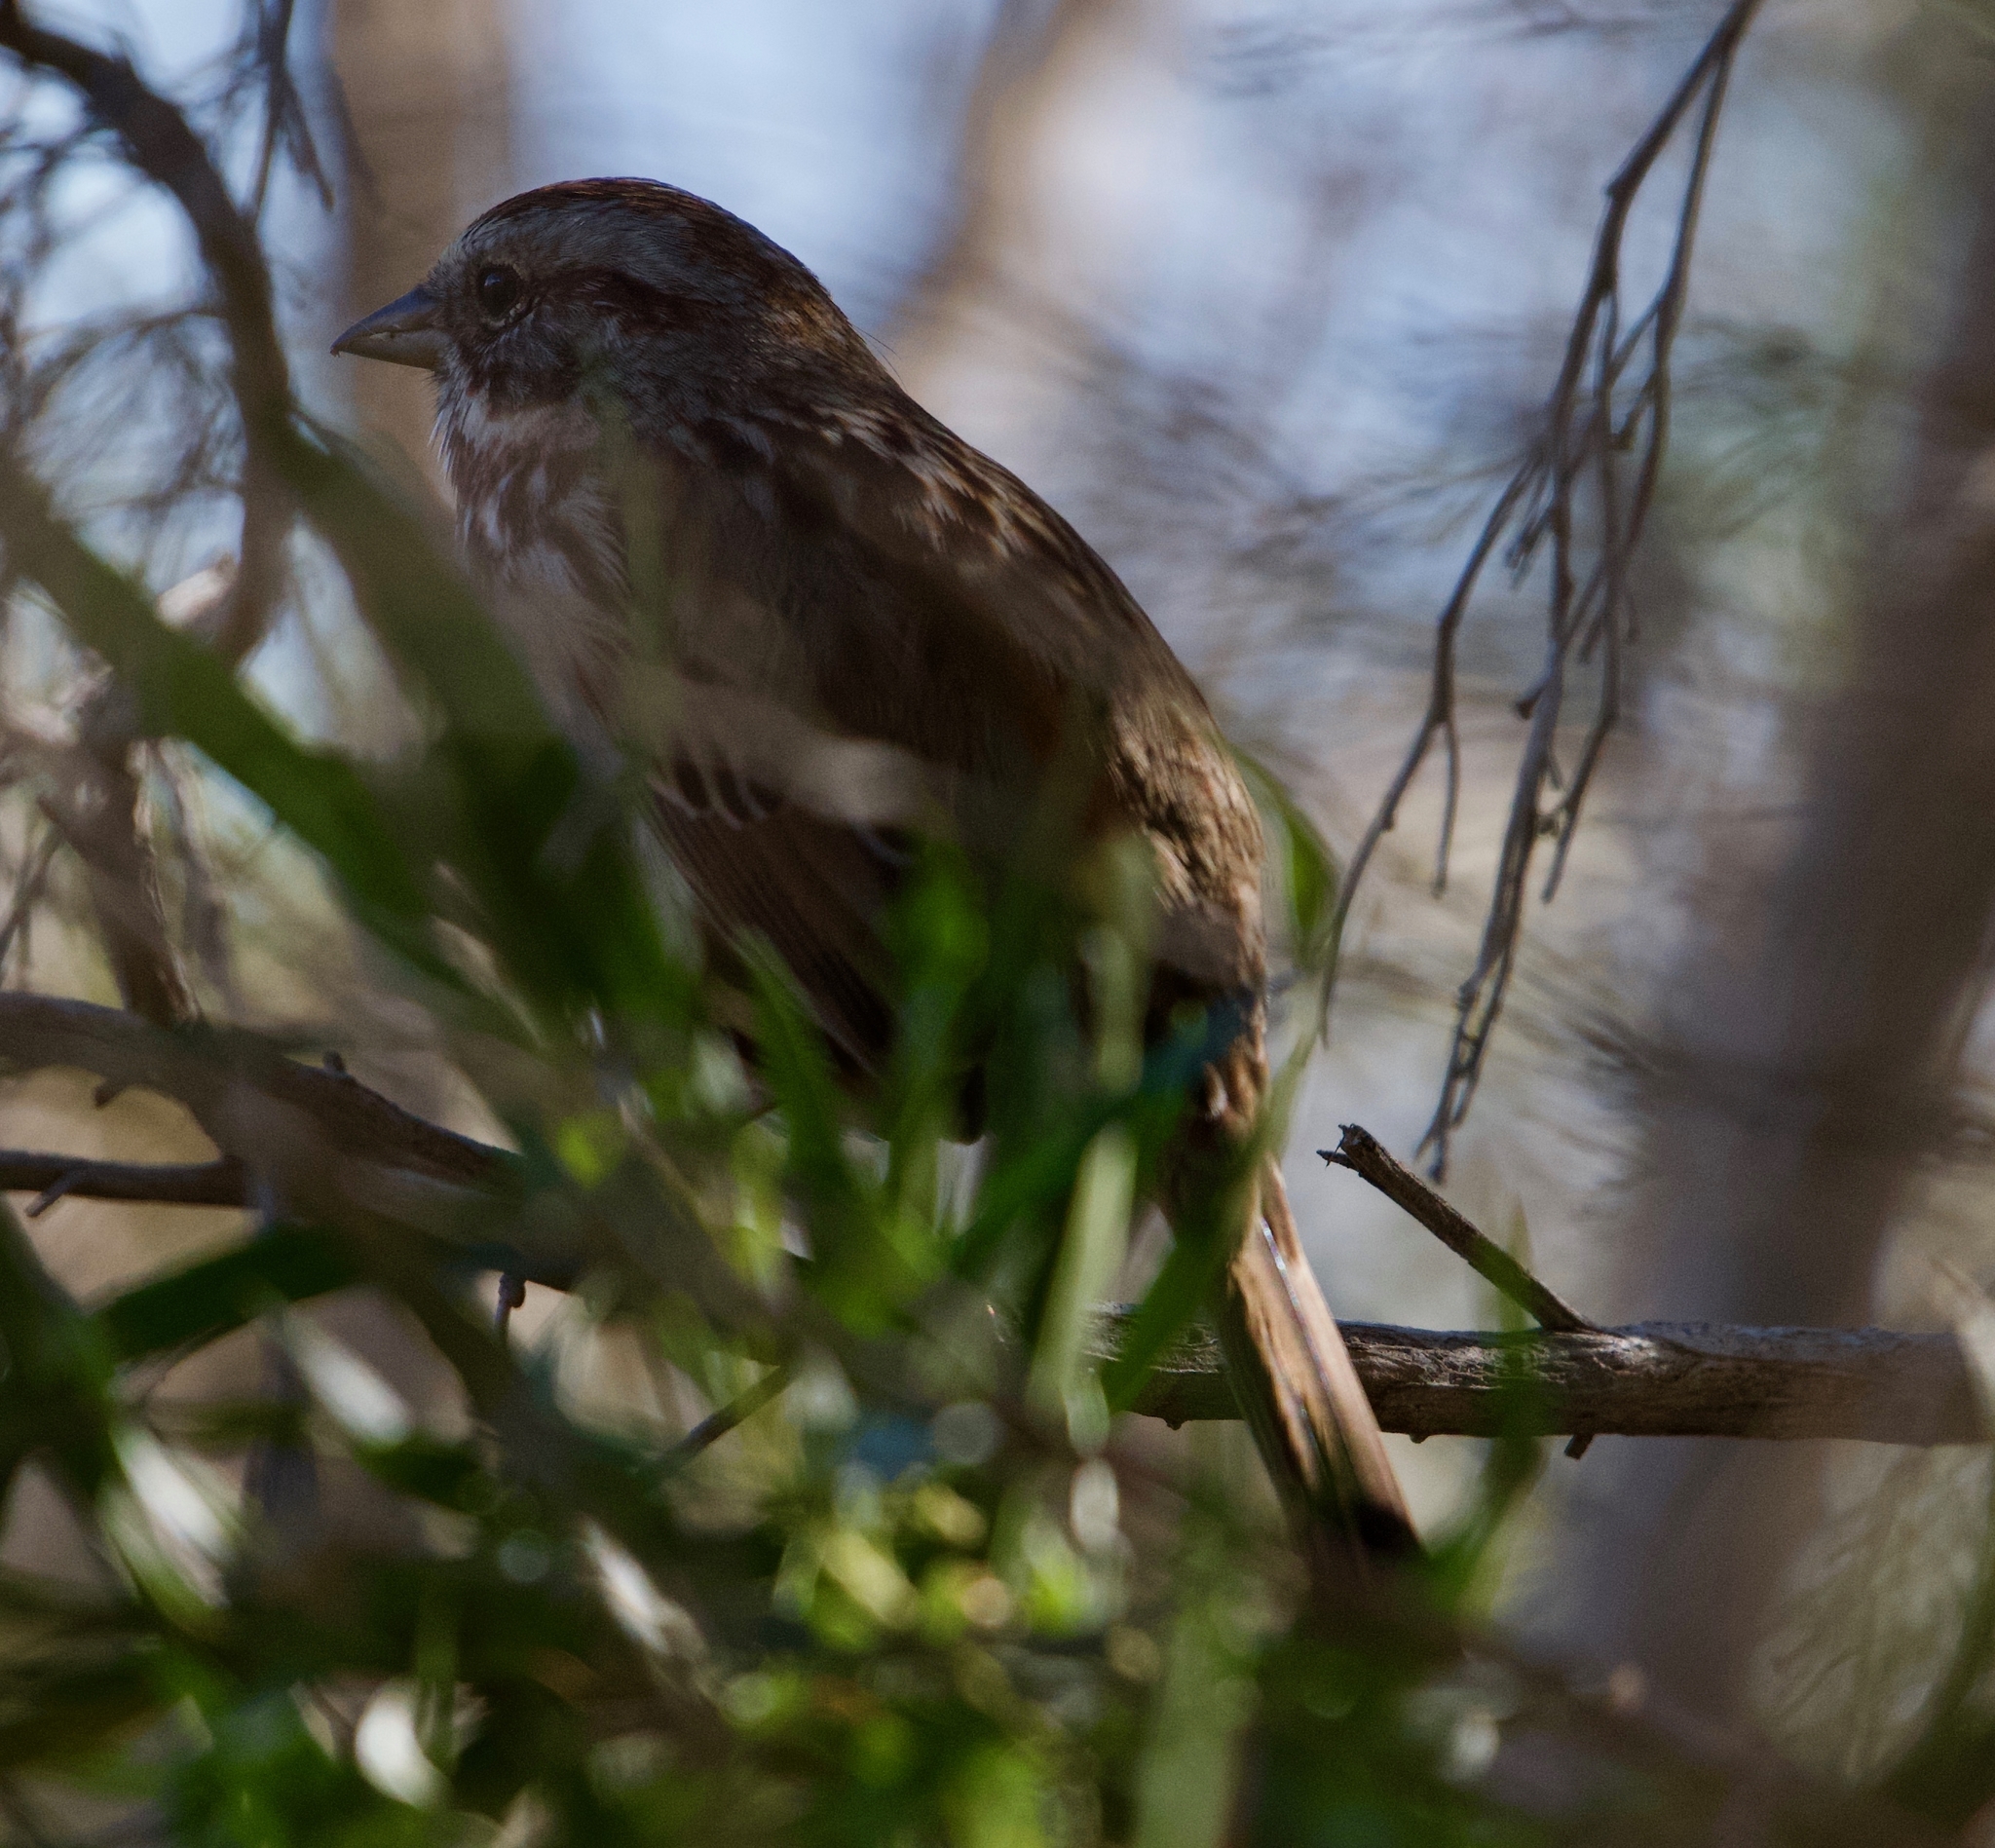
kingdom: Animalia
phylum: Chordata
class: Aves
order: Passeriformes
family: Passerellidae
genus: Melospiza
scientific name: Melospiza melodia
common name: Song sparrow
